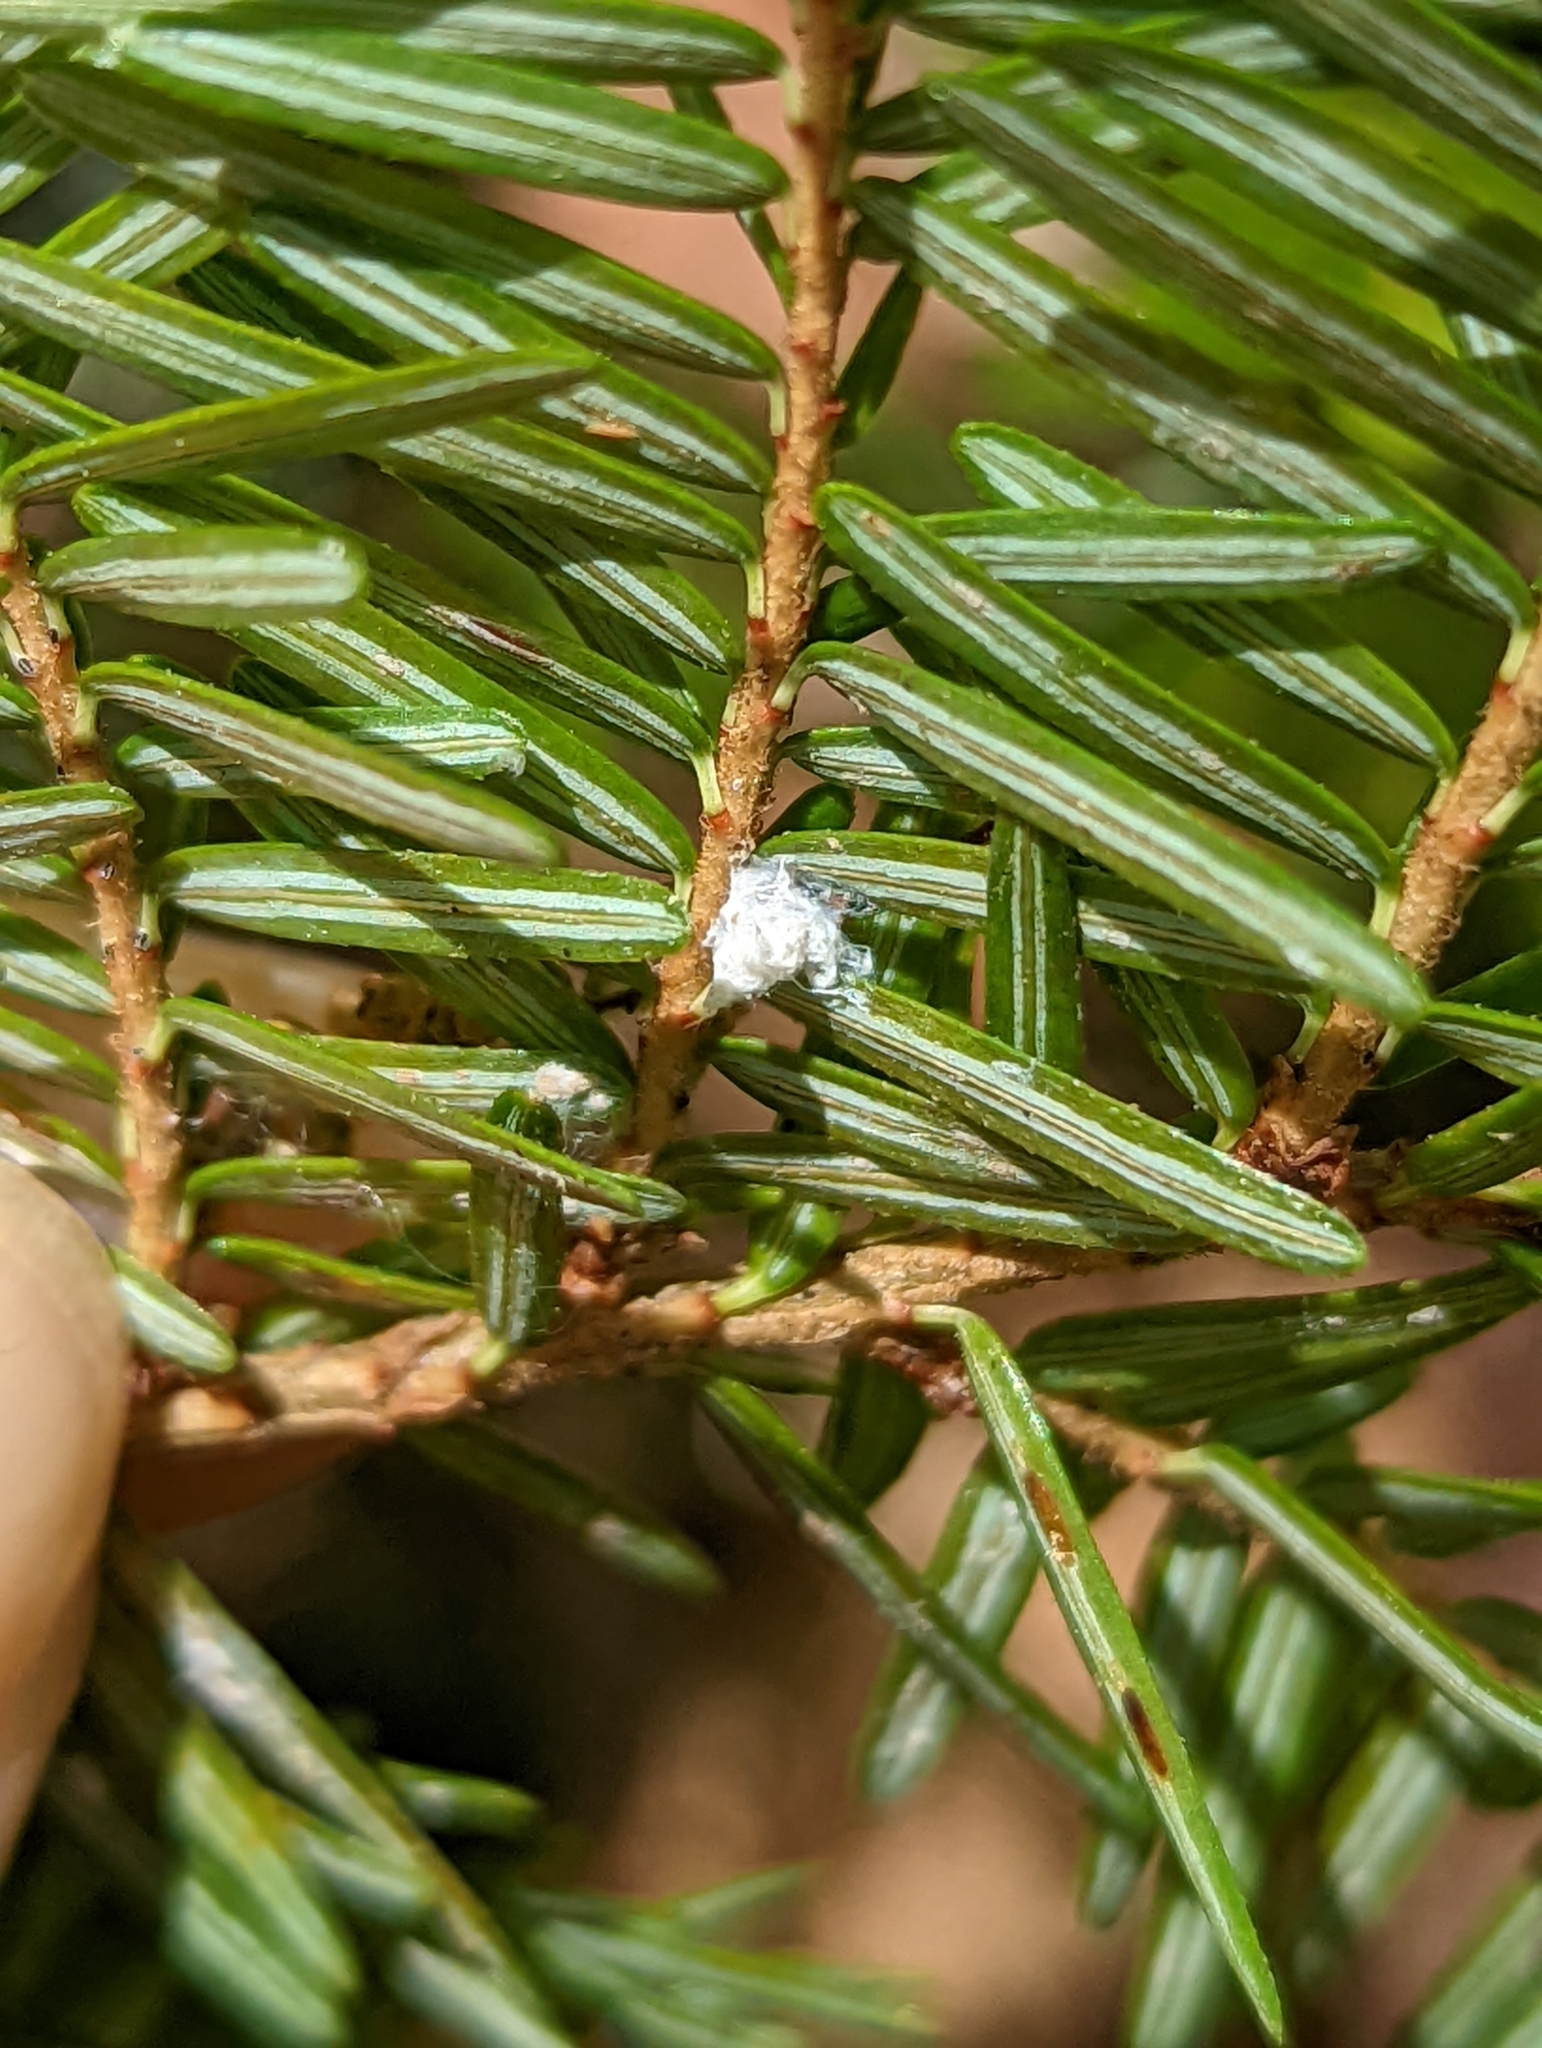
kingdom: Animalia
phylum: Arthropoda
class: Insecta
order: Hemiptera
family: Adelgidae
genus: Adelges
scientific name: Adelges tsugae
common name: Hemlock woolly adelgid
